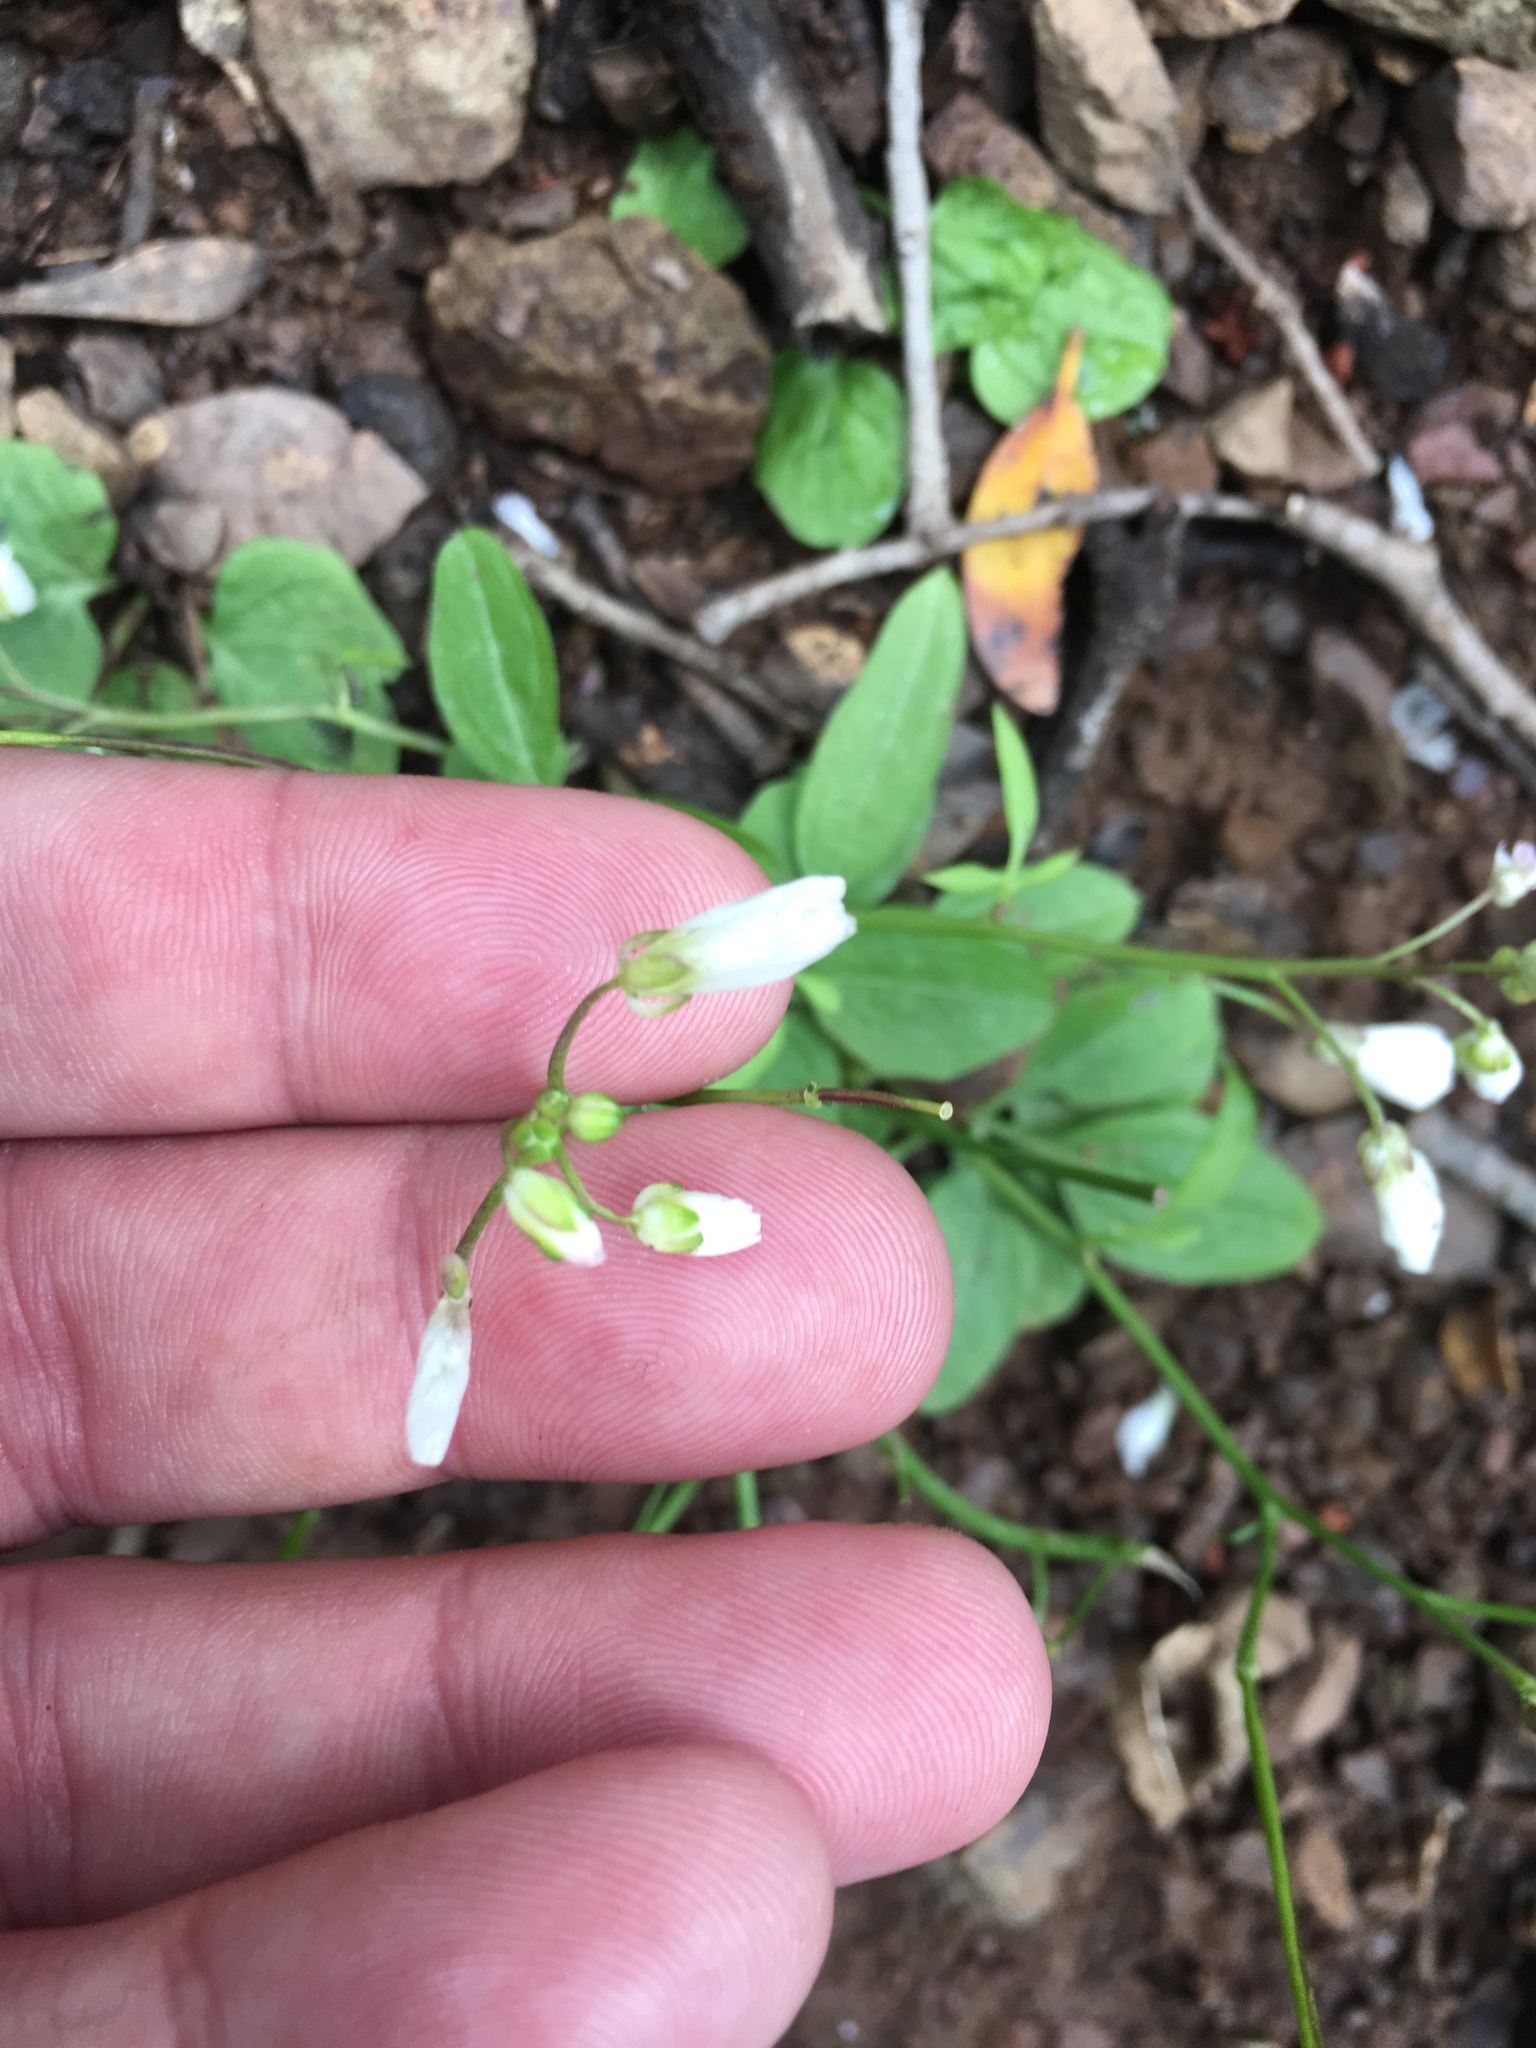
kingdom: Plantae
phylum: Tracheophyta
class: Magnoliopsida
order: Brassicales
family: Brassicaceae
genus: Cardamine
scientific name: Cardamine californica
